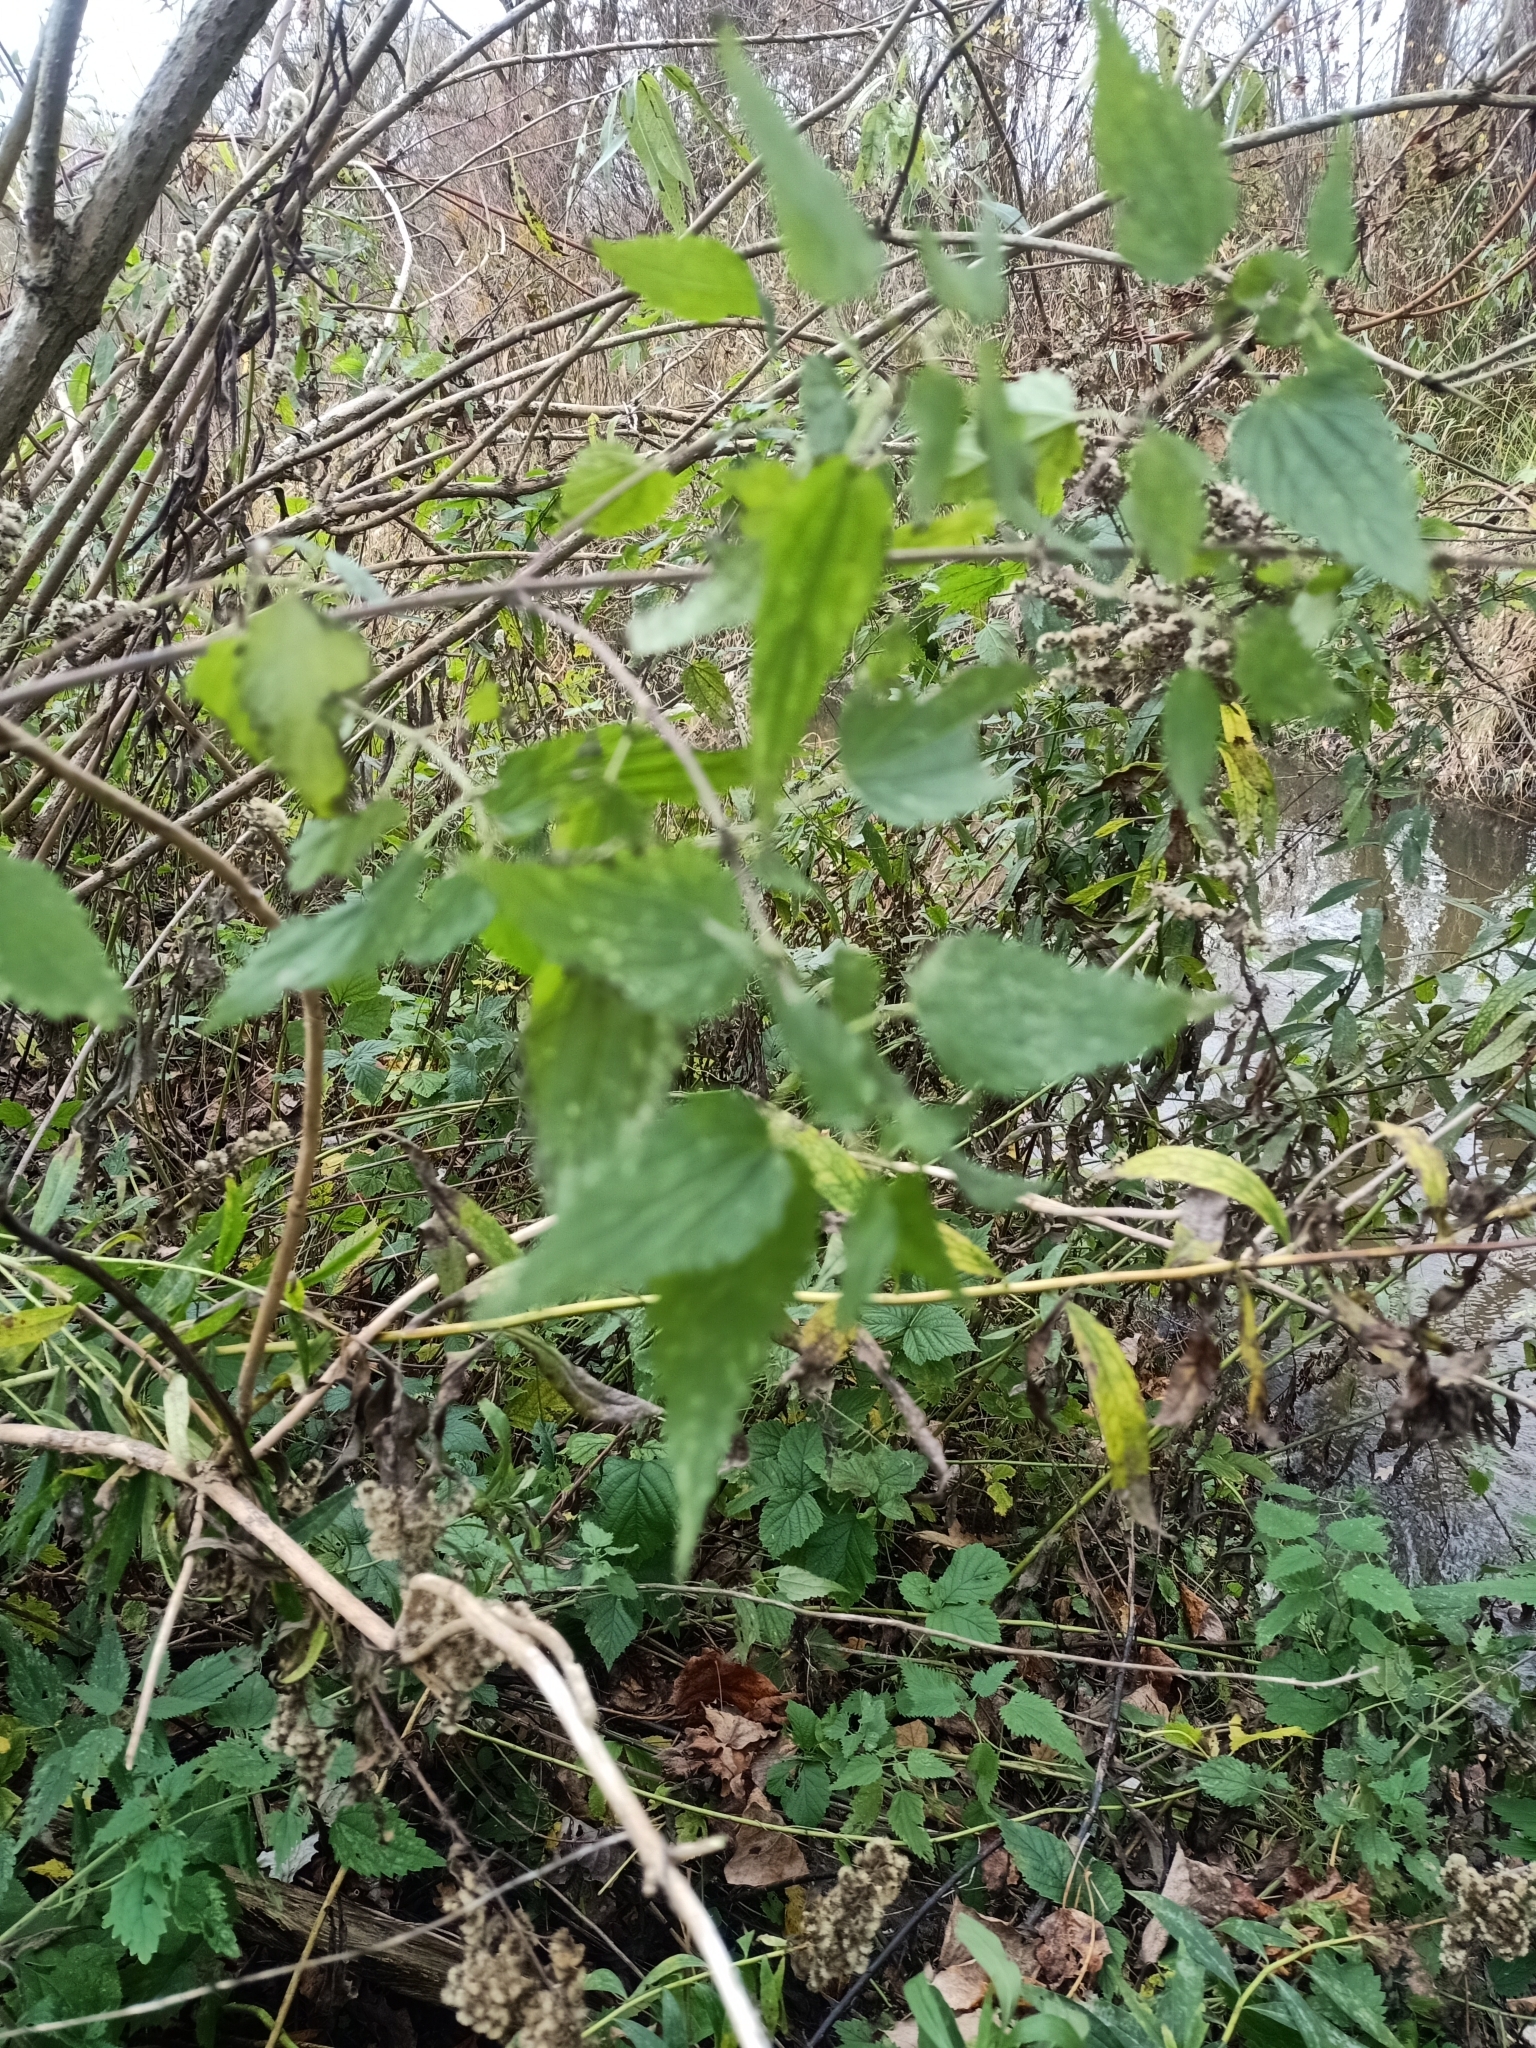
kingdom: Plantae
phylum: Tracheophyta
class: Magnoliopsida
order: Rosales
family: Urticaceae
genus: Urtica
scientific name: Urtica dioica
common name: Common nettle
